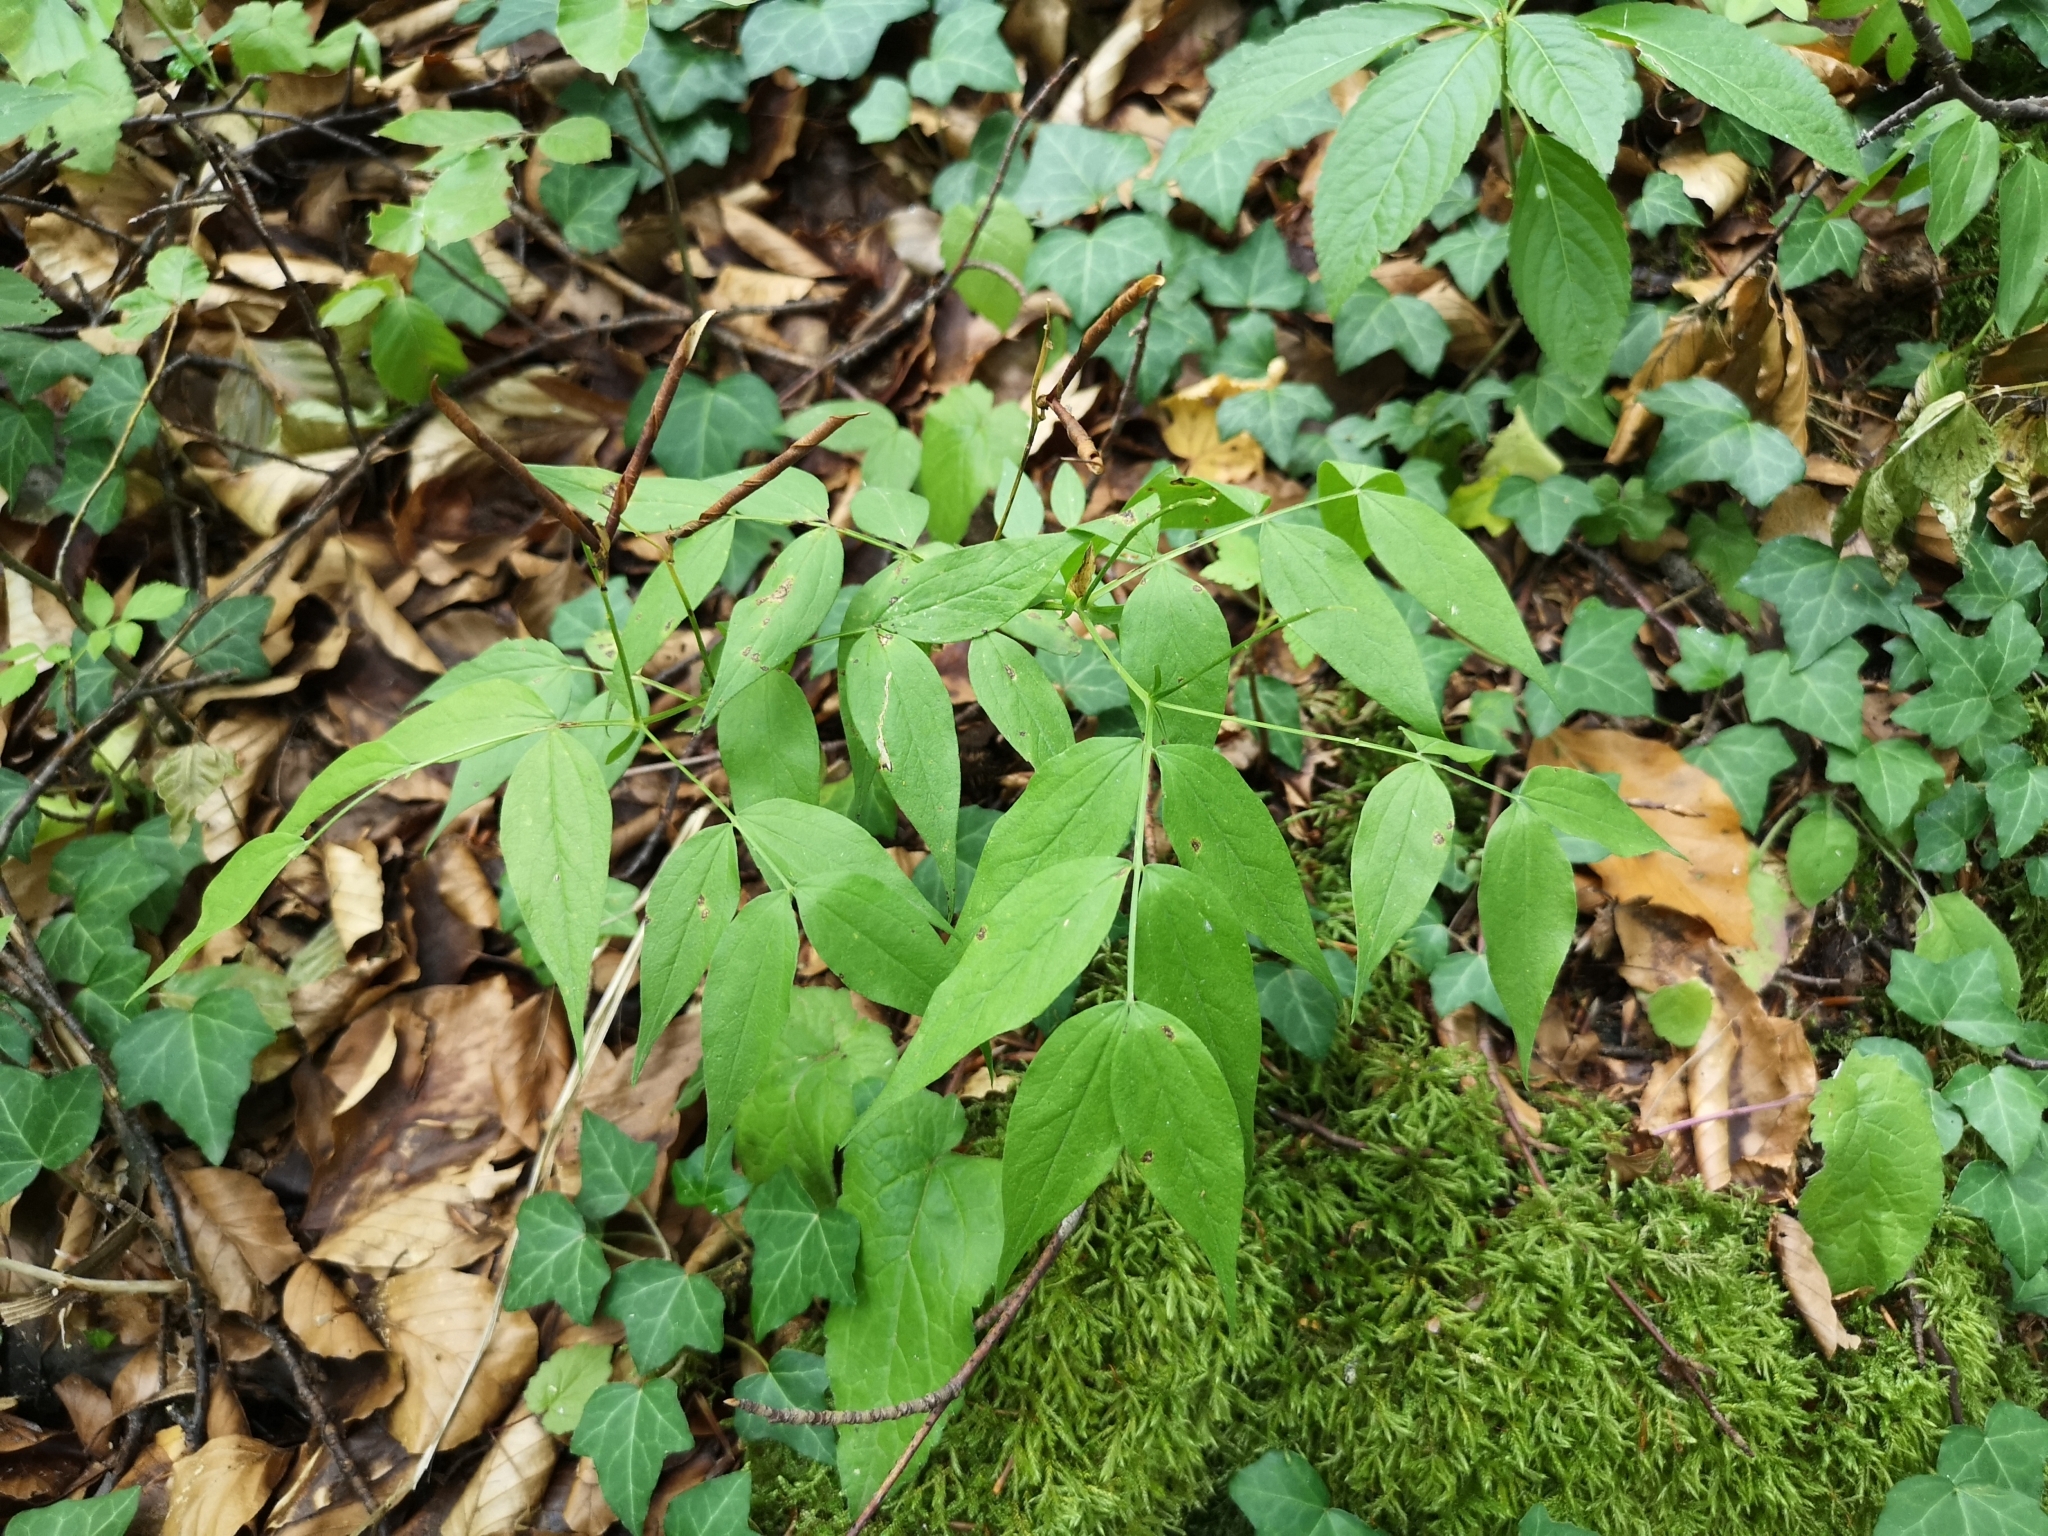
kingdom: Plantae
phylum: Tracheophyta
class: Magnoliopsida
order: Fabales
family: Fabaceae
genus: Lathyrus
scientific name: Lathyrus vernus
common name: Spring pea
